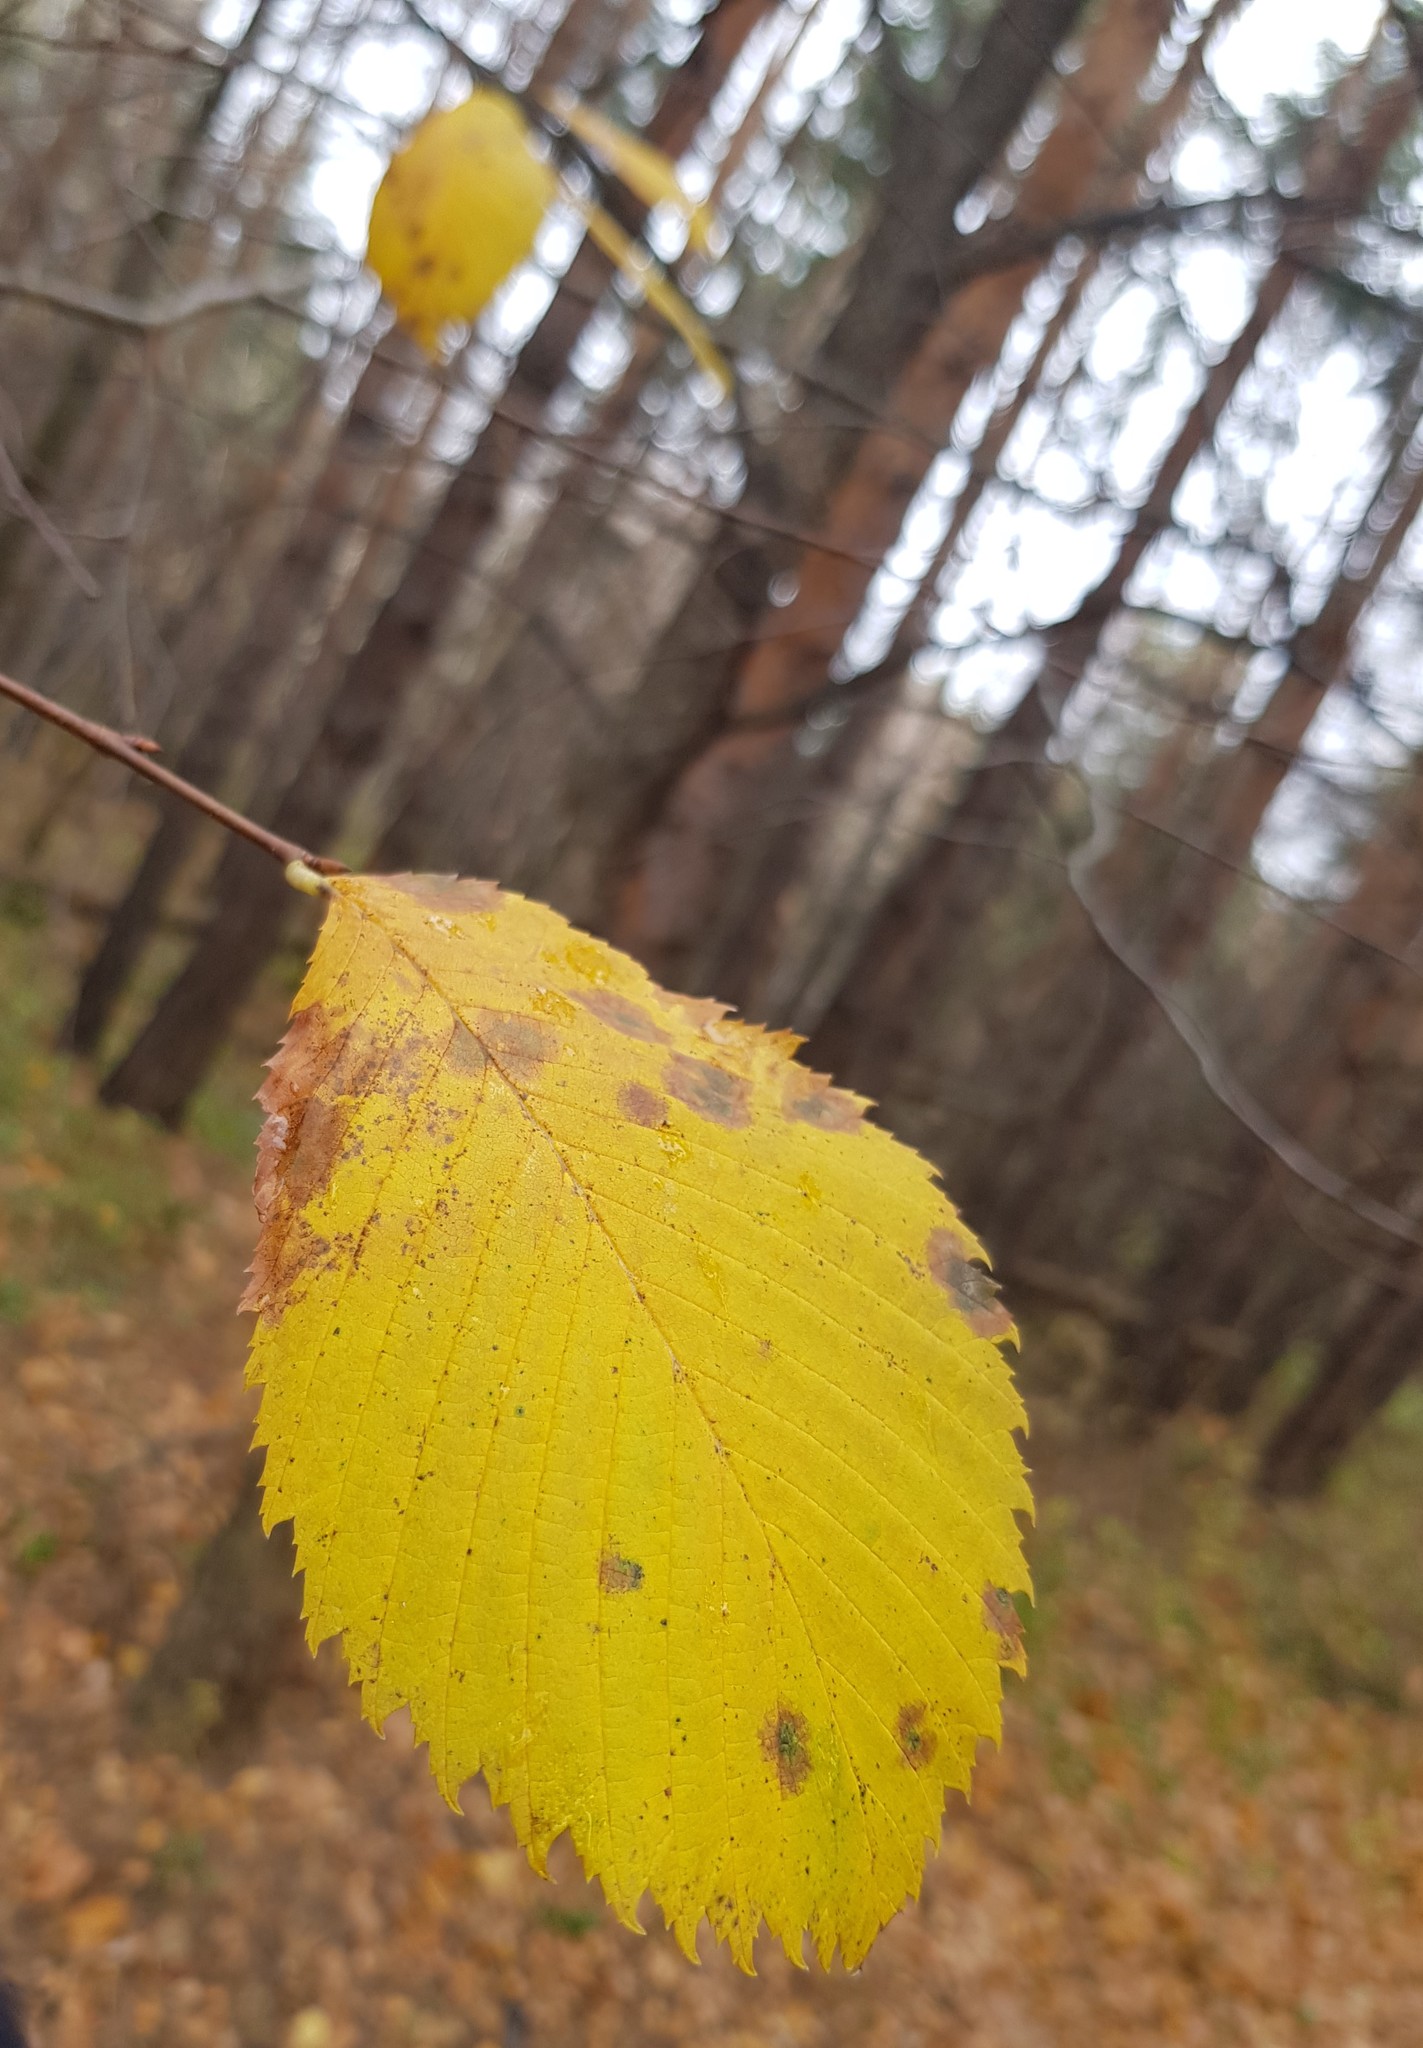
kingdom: Plantae
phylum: Tracheophyta
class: Magnoliopsida
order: Rosales
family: Ulmaceae
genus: Ulmus
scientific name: Ulmus glabra
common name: Wych elm
